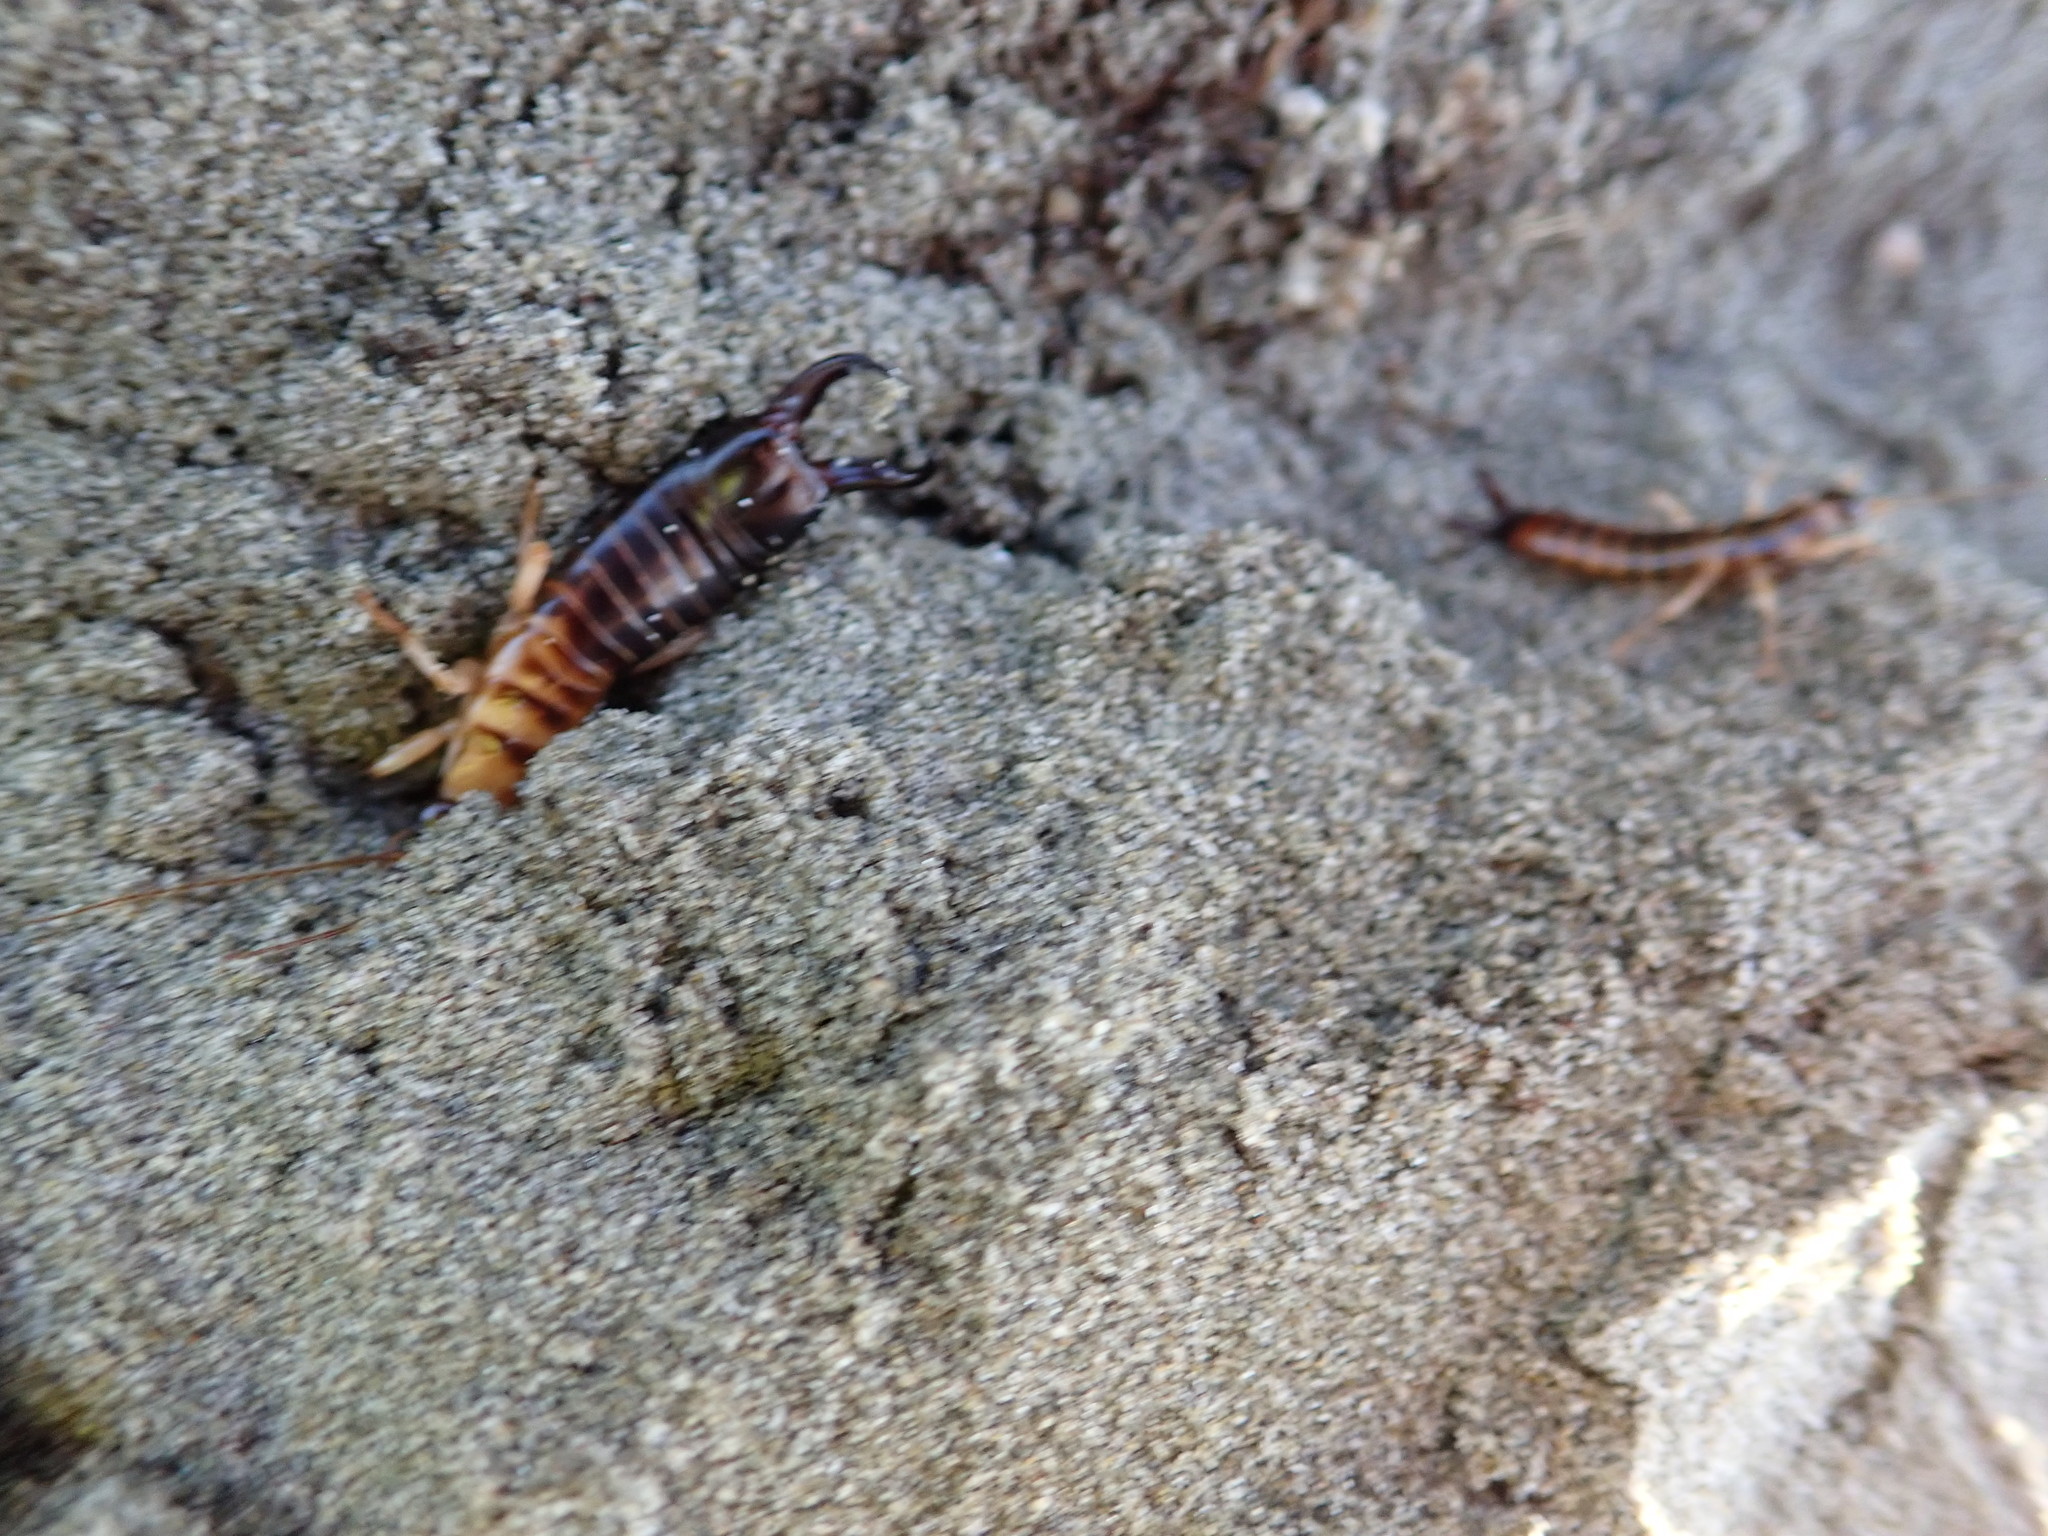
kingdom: Animalia
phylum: Arthropoda
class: Insecta
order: Dermaptera
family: Anisolabididae
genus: Anisolabis
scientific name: Anisolabis littorea
